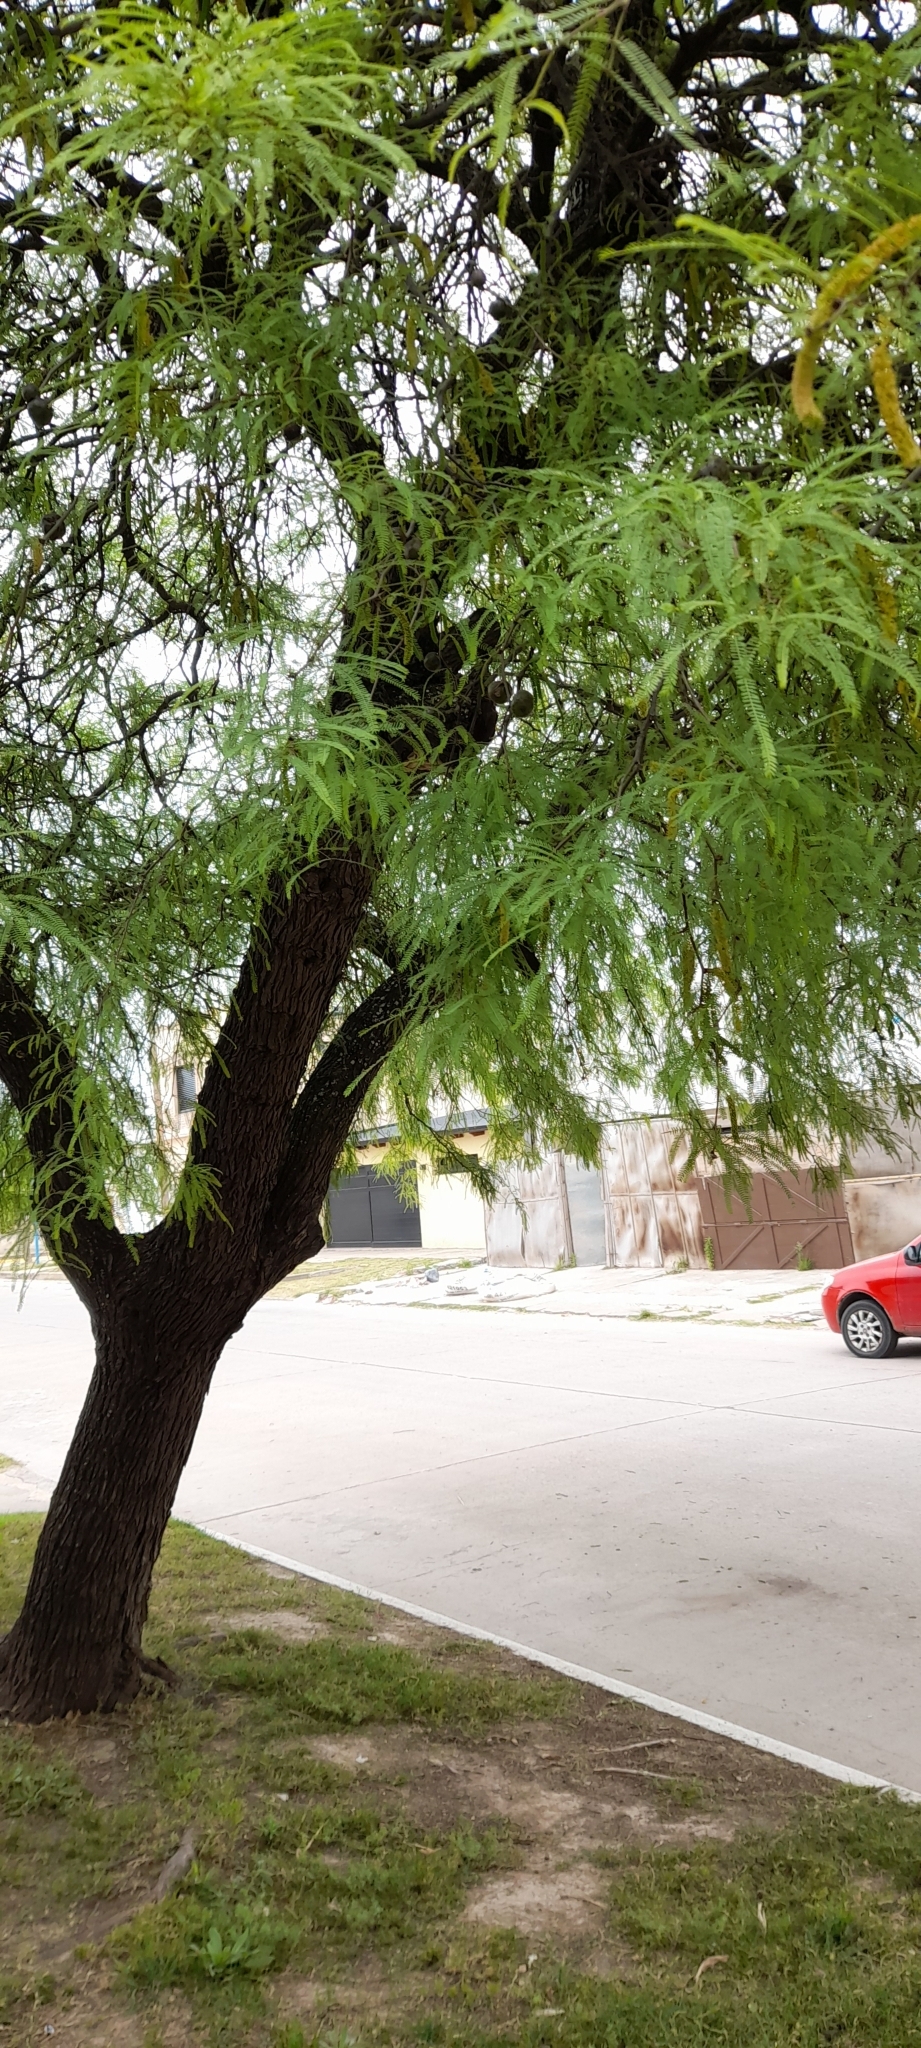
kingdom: Plantae
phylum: Tracheophyta
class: Magnoliopsida
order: Fabales
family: Fabaceae
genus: Prosopis
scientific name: Prosopis alba
